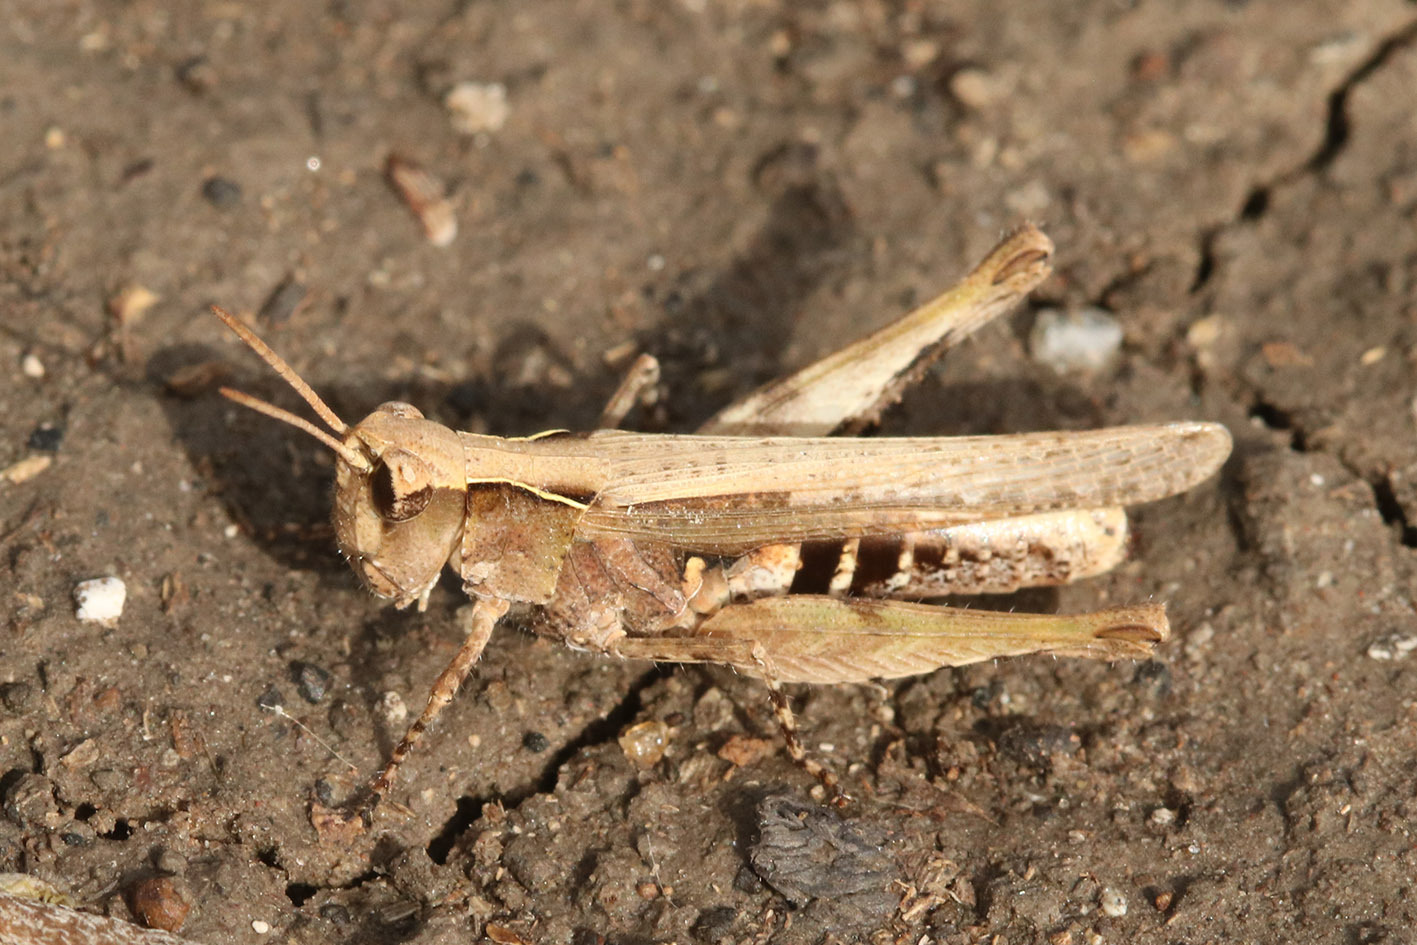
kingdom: Animalia
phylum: Arthropoda
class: Insecta
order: Orthoptera
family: Acrididae
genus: Orphulella
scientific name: Orphulella punctata
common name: Slant-faced grasshopper
